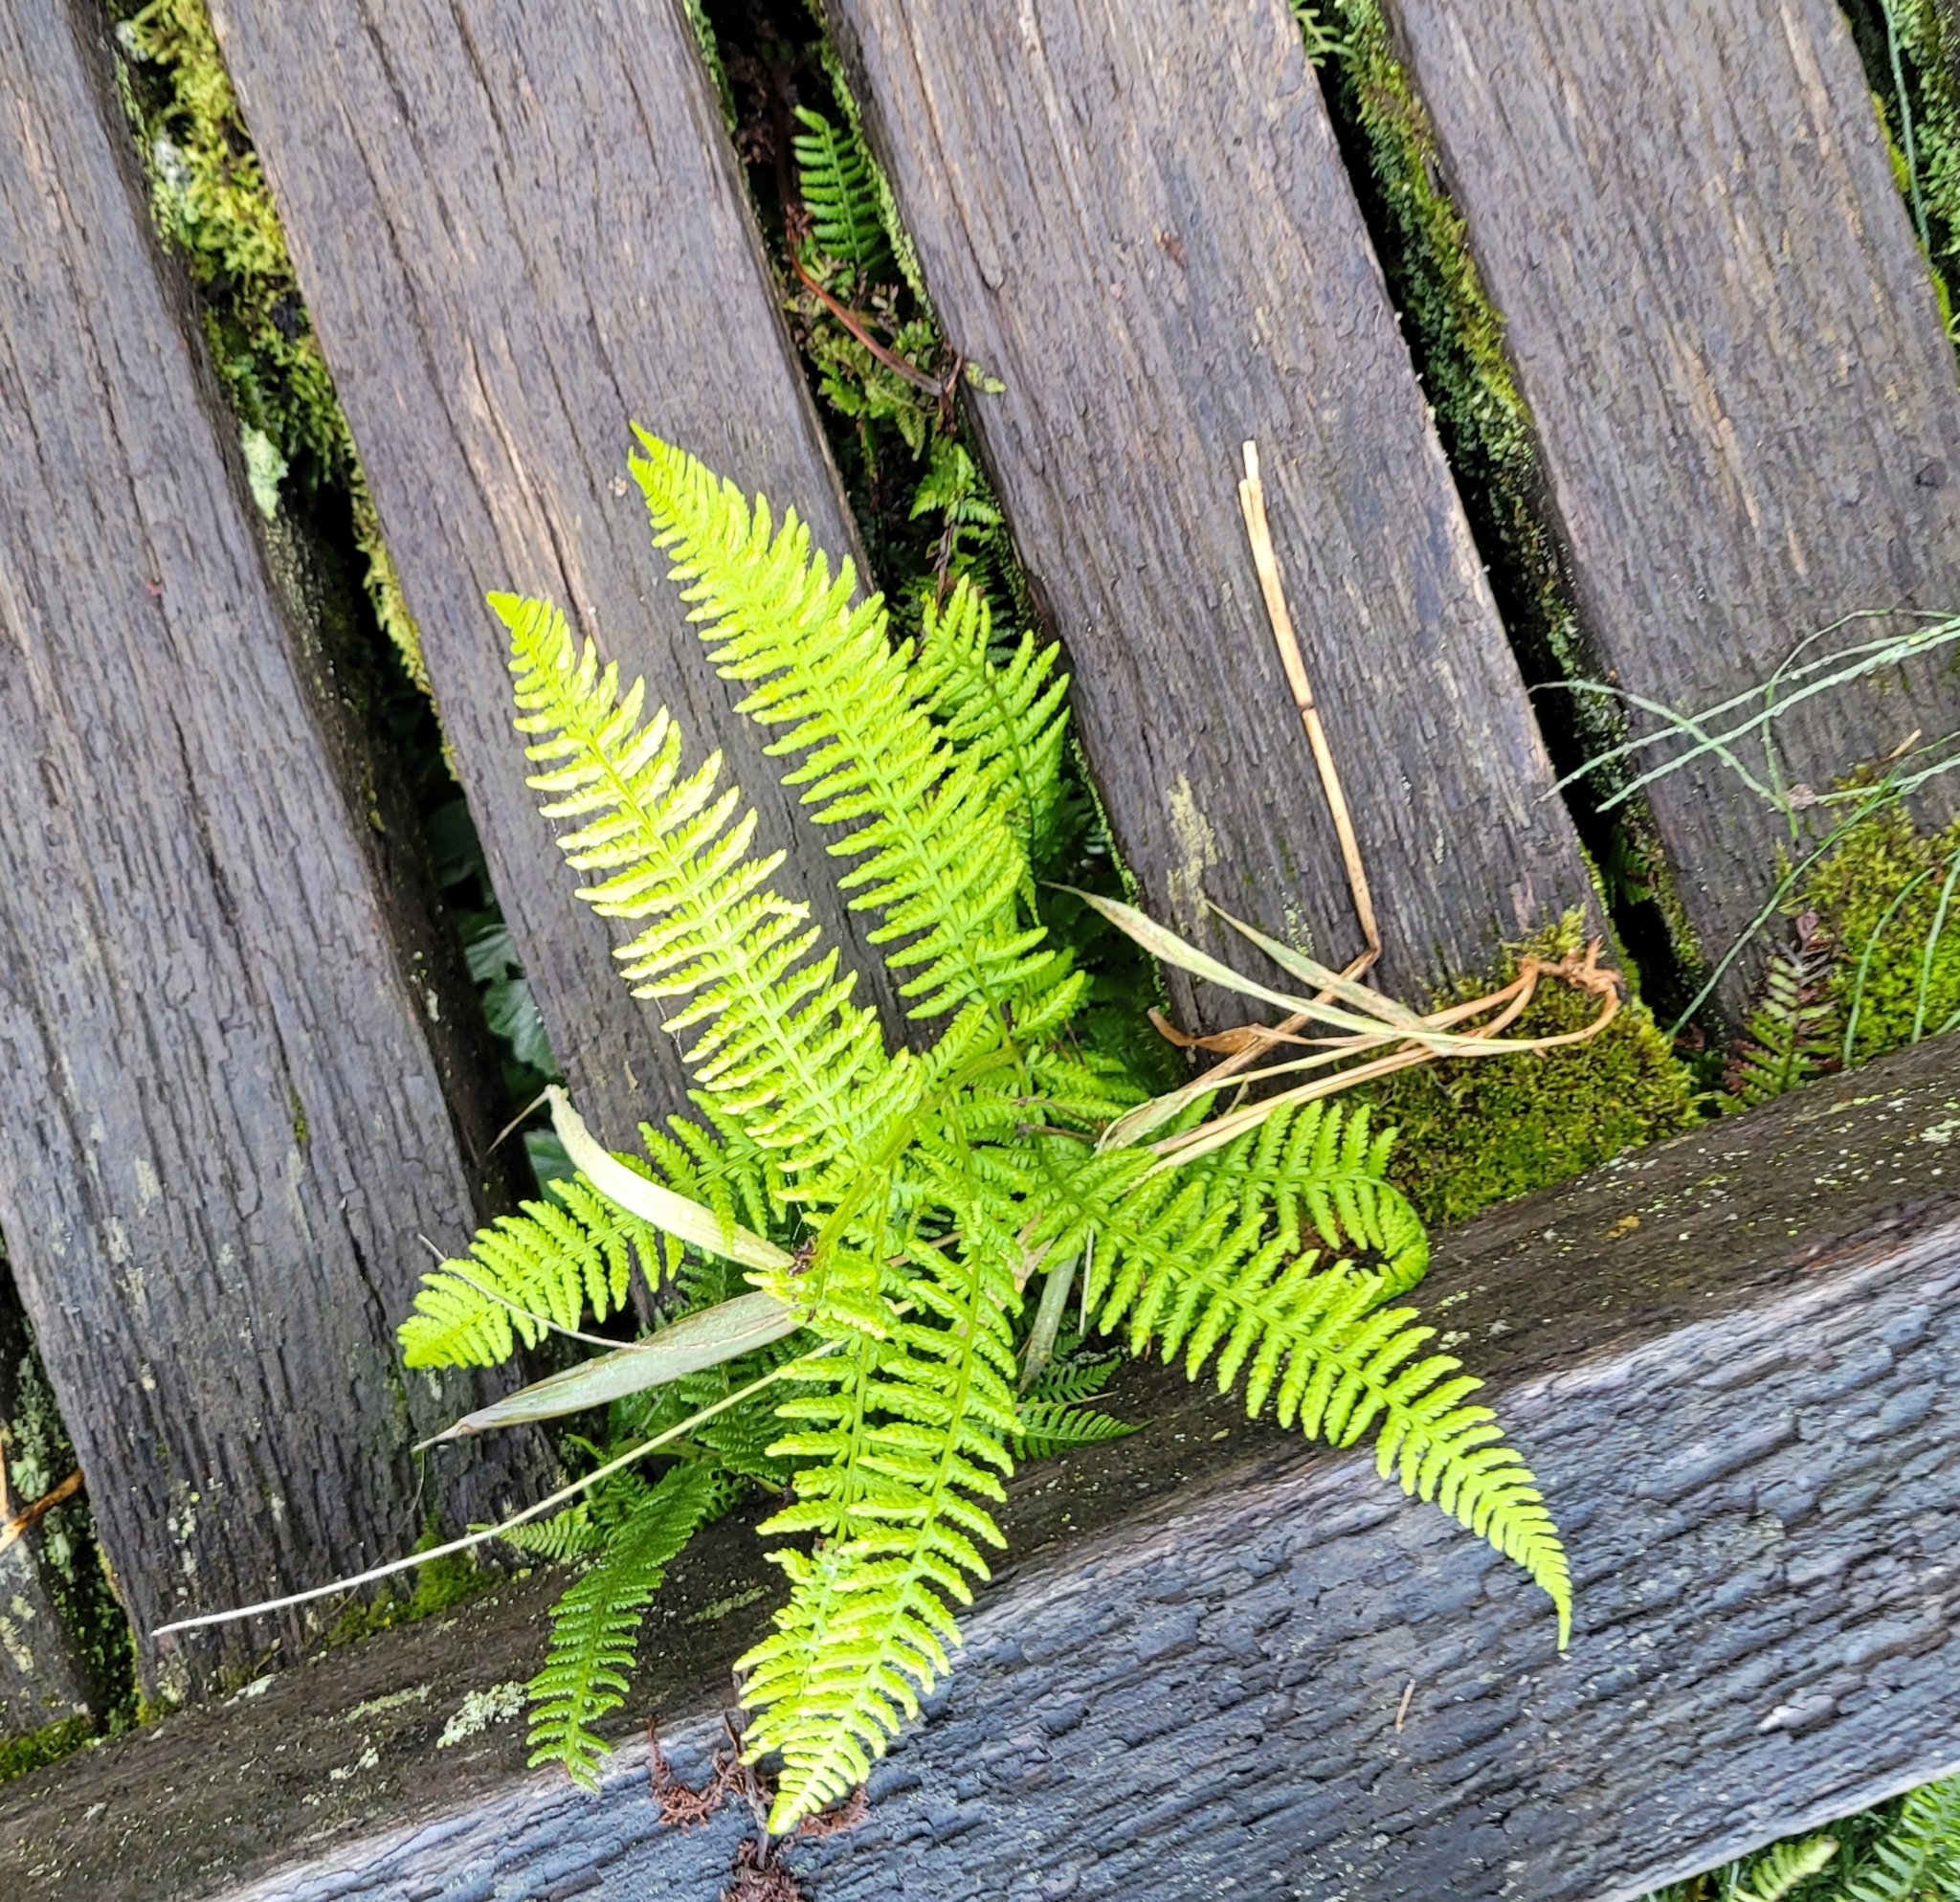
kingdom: Plantae
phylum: Tracheophyta
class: Polypodiopsida
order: Polypodiales
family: Athyriaceae
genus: Athyrium
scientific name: Athyrium filix-femina
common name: Lady fern
